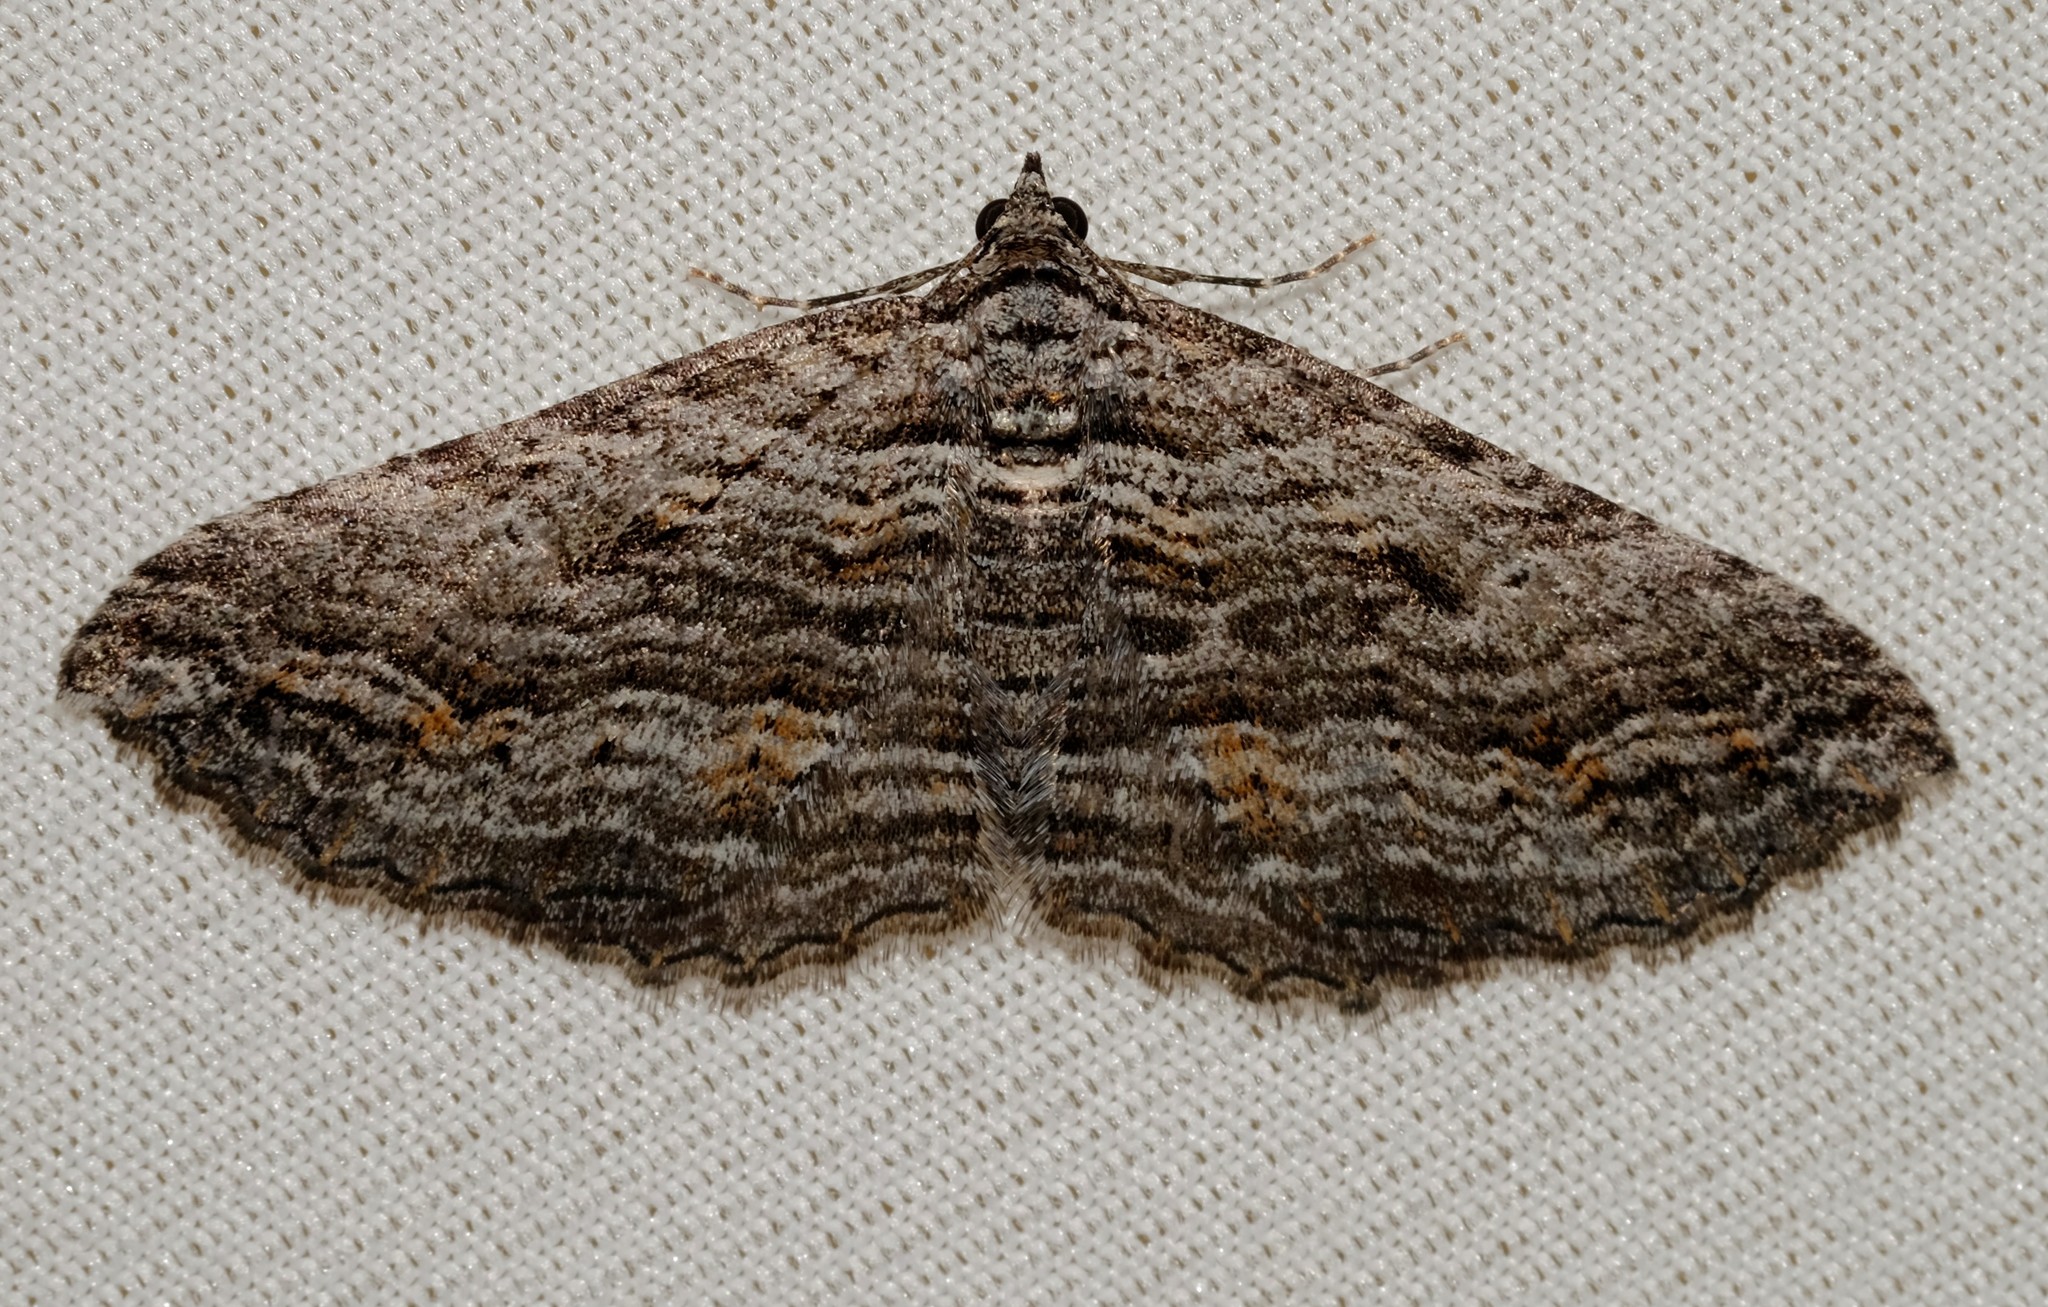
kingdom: Animalia
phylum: Arthropoda
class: Insecta
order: Lepidoptera
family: Geometridae
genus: Chrysolarentia
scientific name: Chrysolarentia severata
